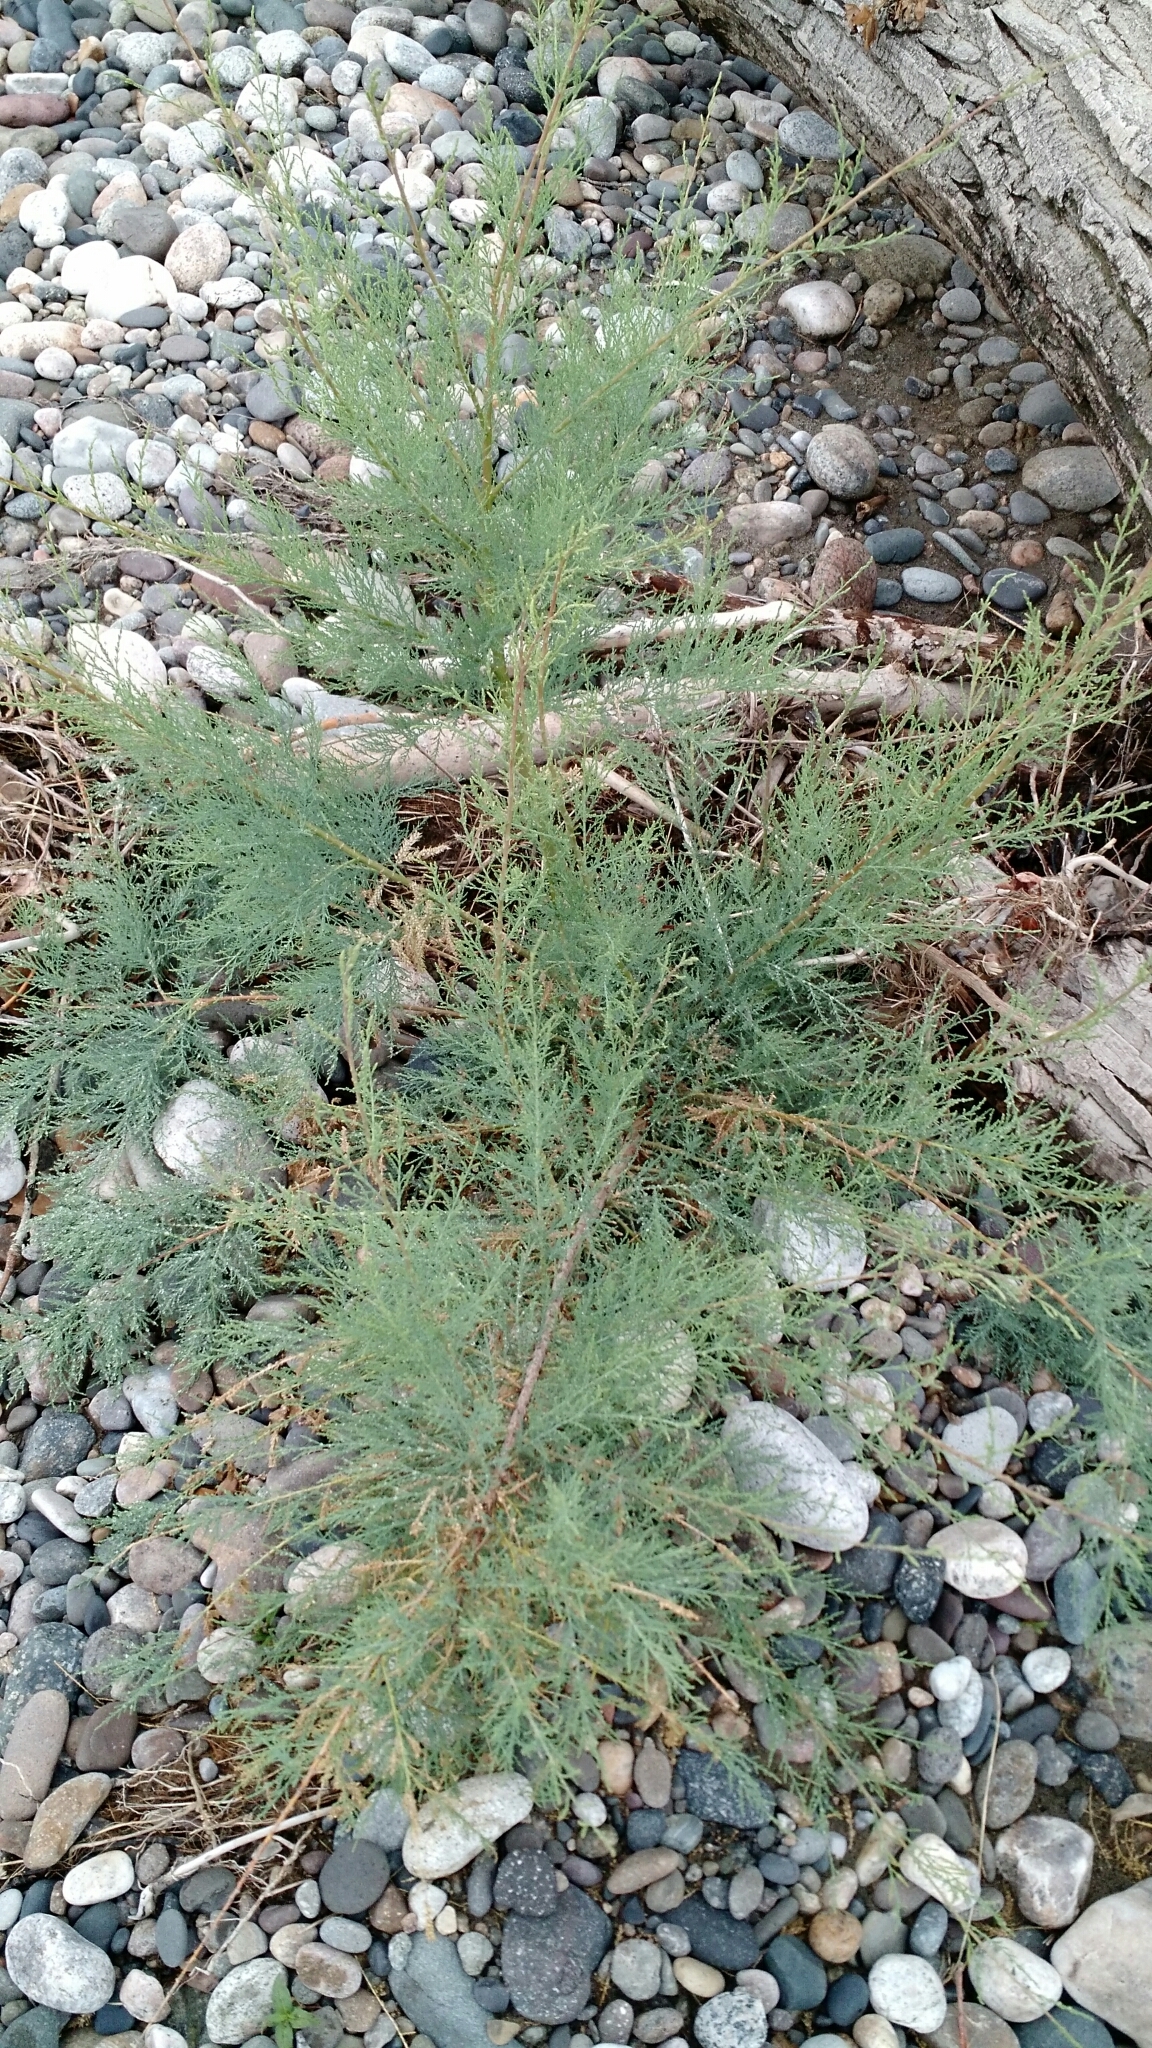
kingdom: Plantae
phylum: Tracheophyta
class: Magnoliopsida
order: Caryophyllales
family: Tamaricaceae
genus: Tamarix
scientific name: Tamarix ramosissima
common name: Pink tamarisk
